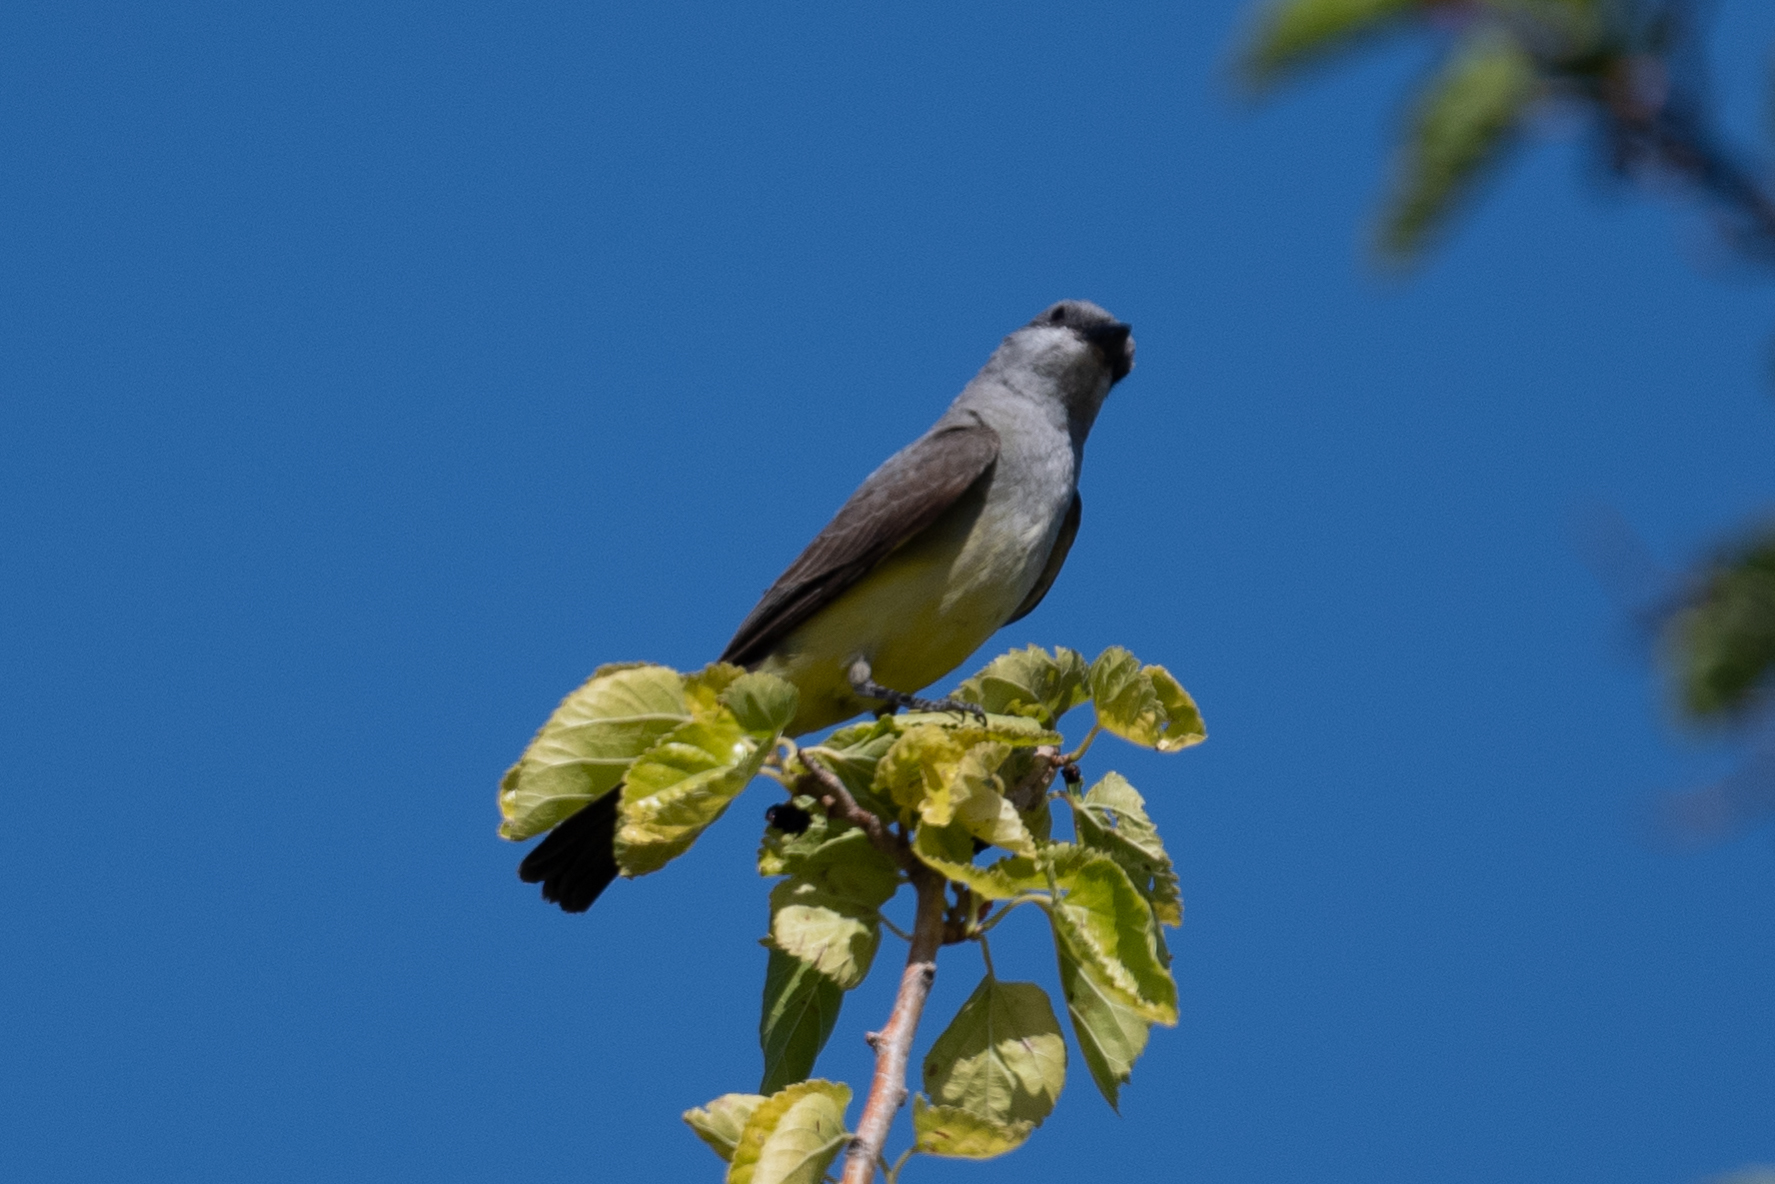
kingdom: Animalia
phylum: Chordata
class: Aves
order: Passeriformes
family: Tyrannidae
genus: Tyrannus
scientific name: Tyrannus verticalis
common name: Western kingbird
